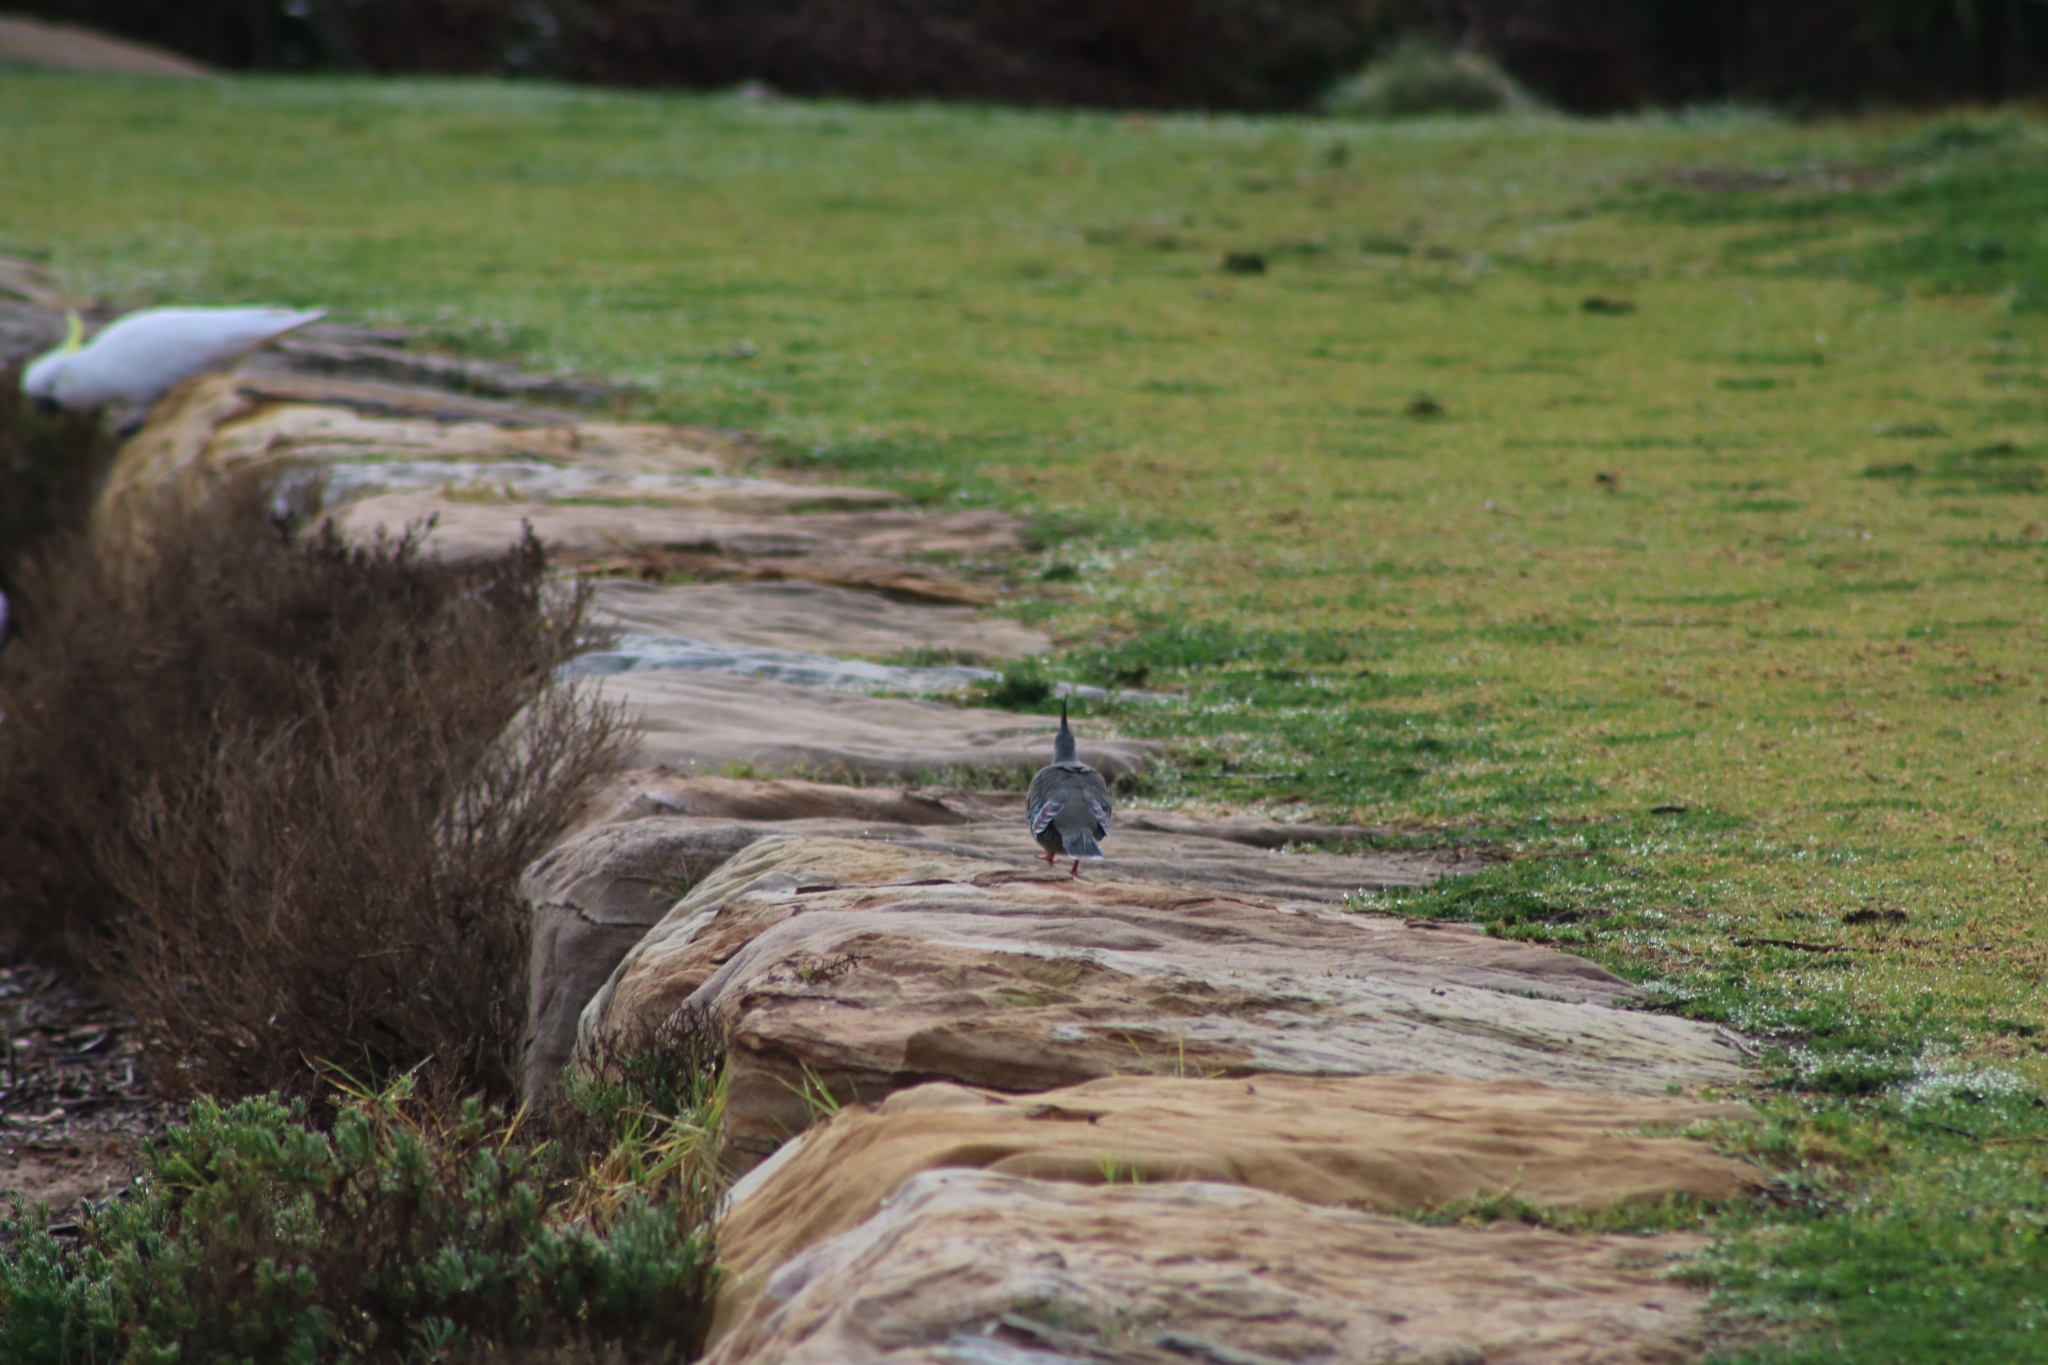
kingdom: Animalia
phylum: Chordata
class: Aves
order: Columbiformes
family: Columbidae
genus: Ocyphaps
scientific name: Ocyphaps lophotes
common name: Crested pigeon
